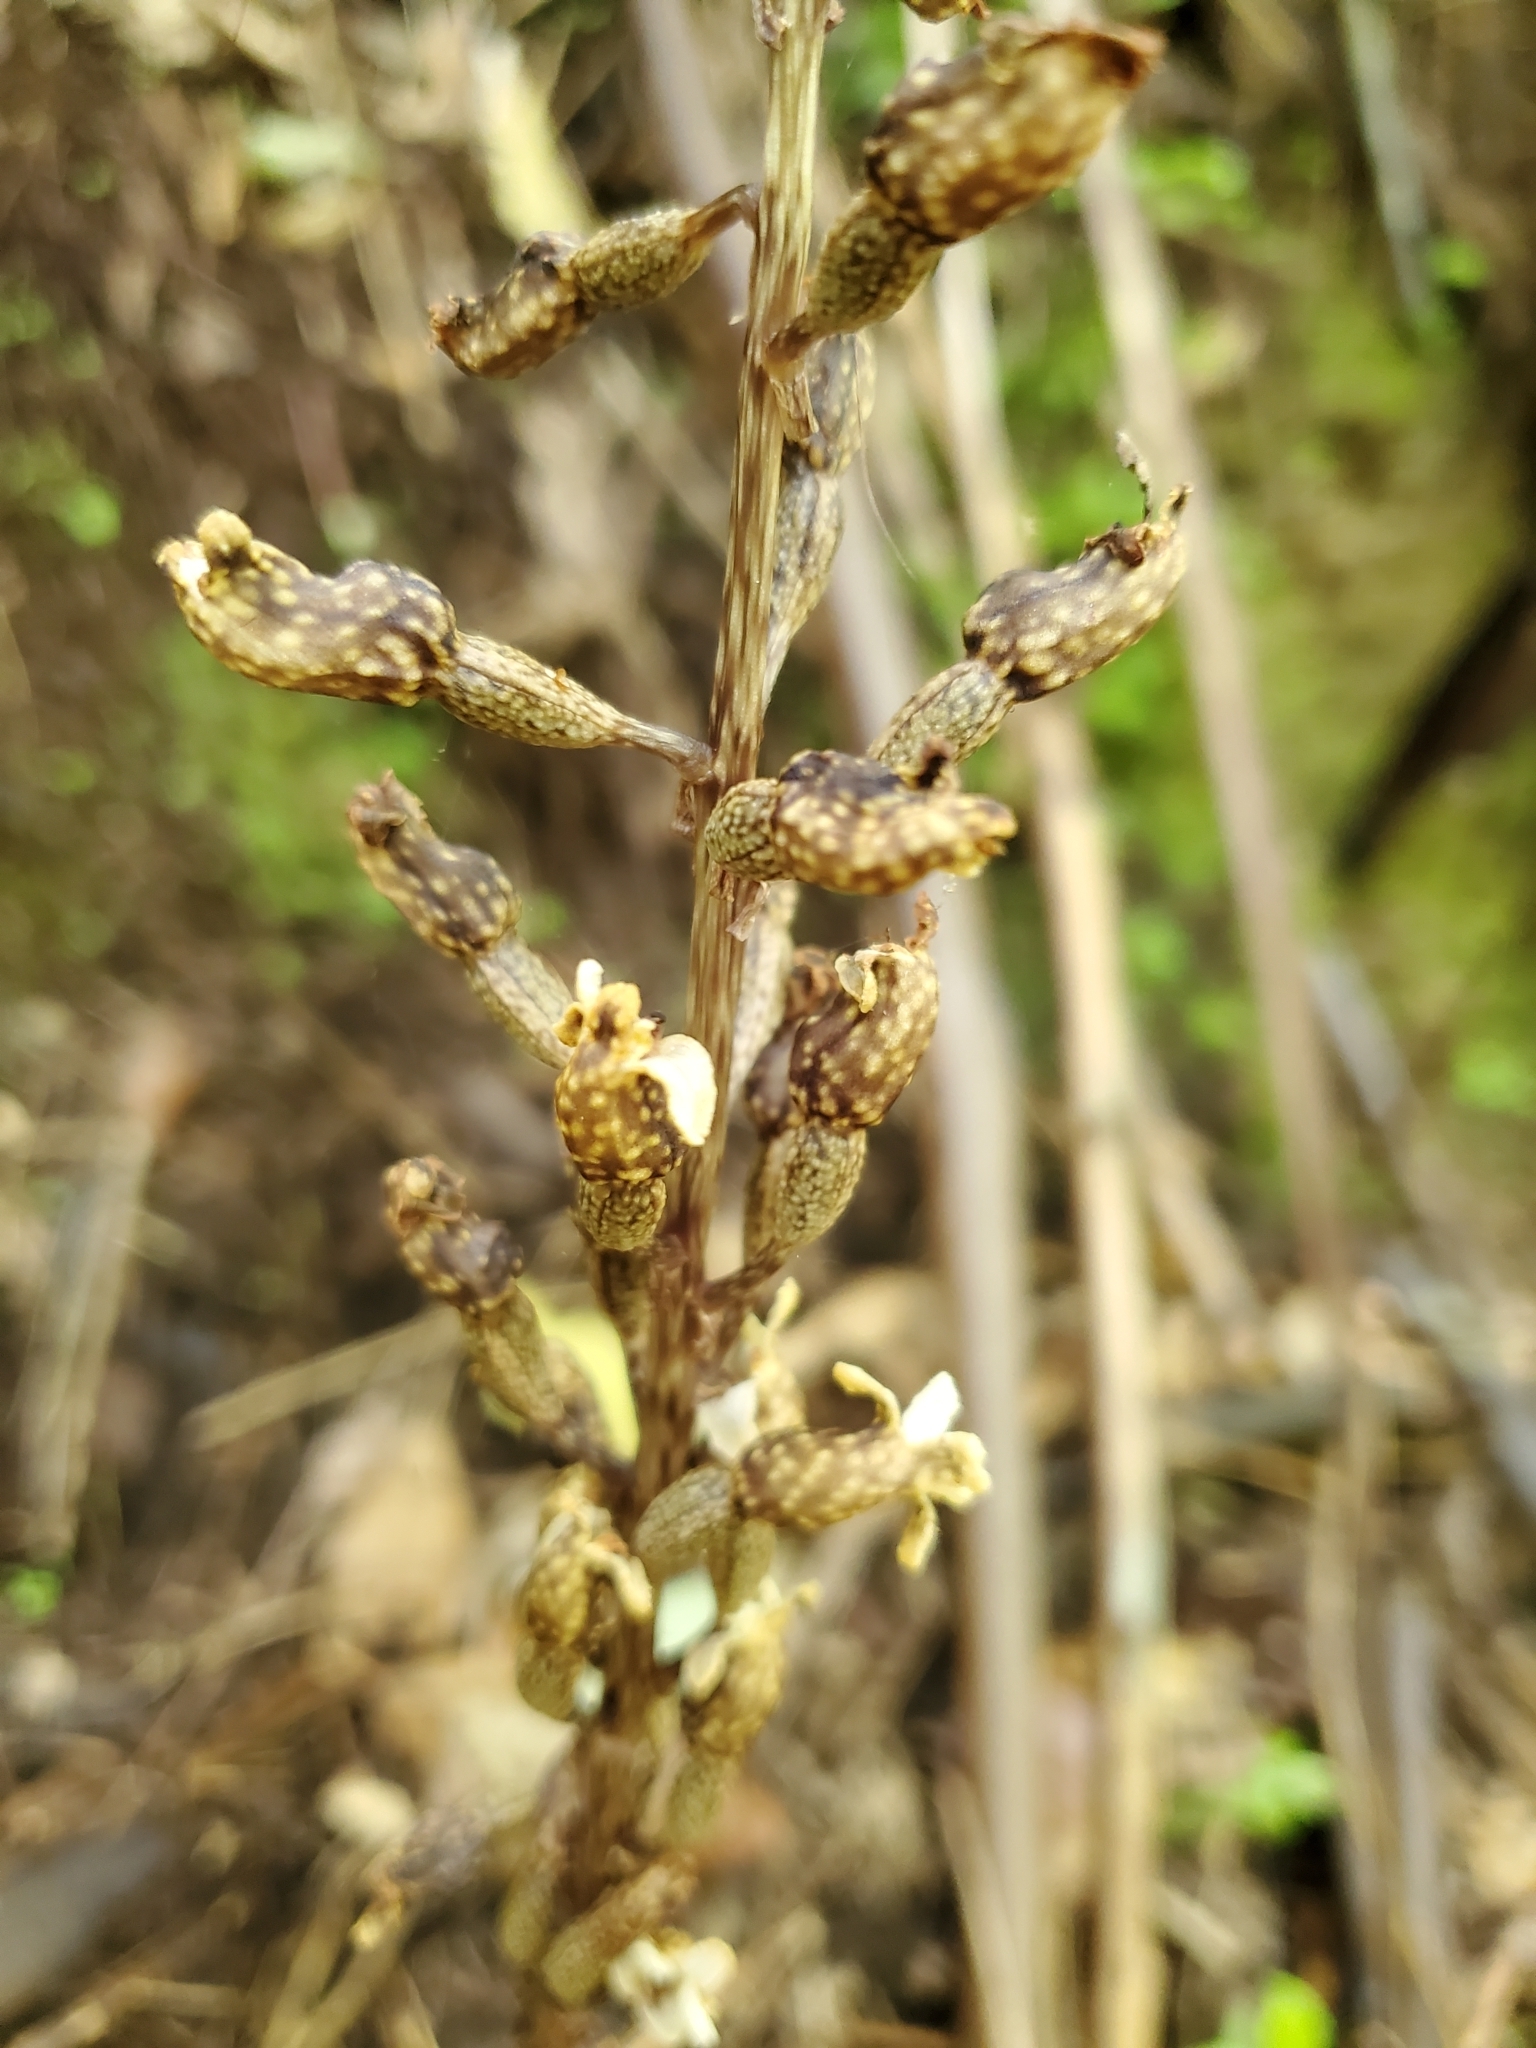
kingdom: Plantae
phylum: Tracheophyta
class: Liliopsida
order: Asparagales
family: Orchidaceae
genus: Gastrodia
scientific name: Gastrodia cunninghamii
